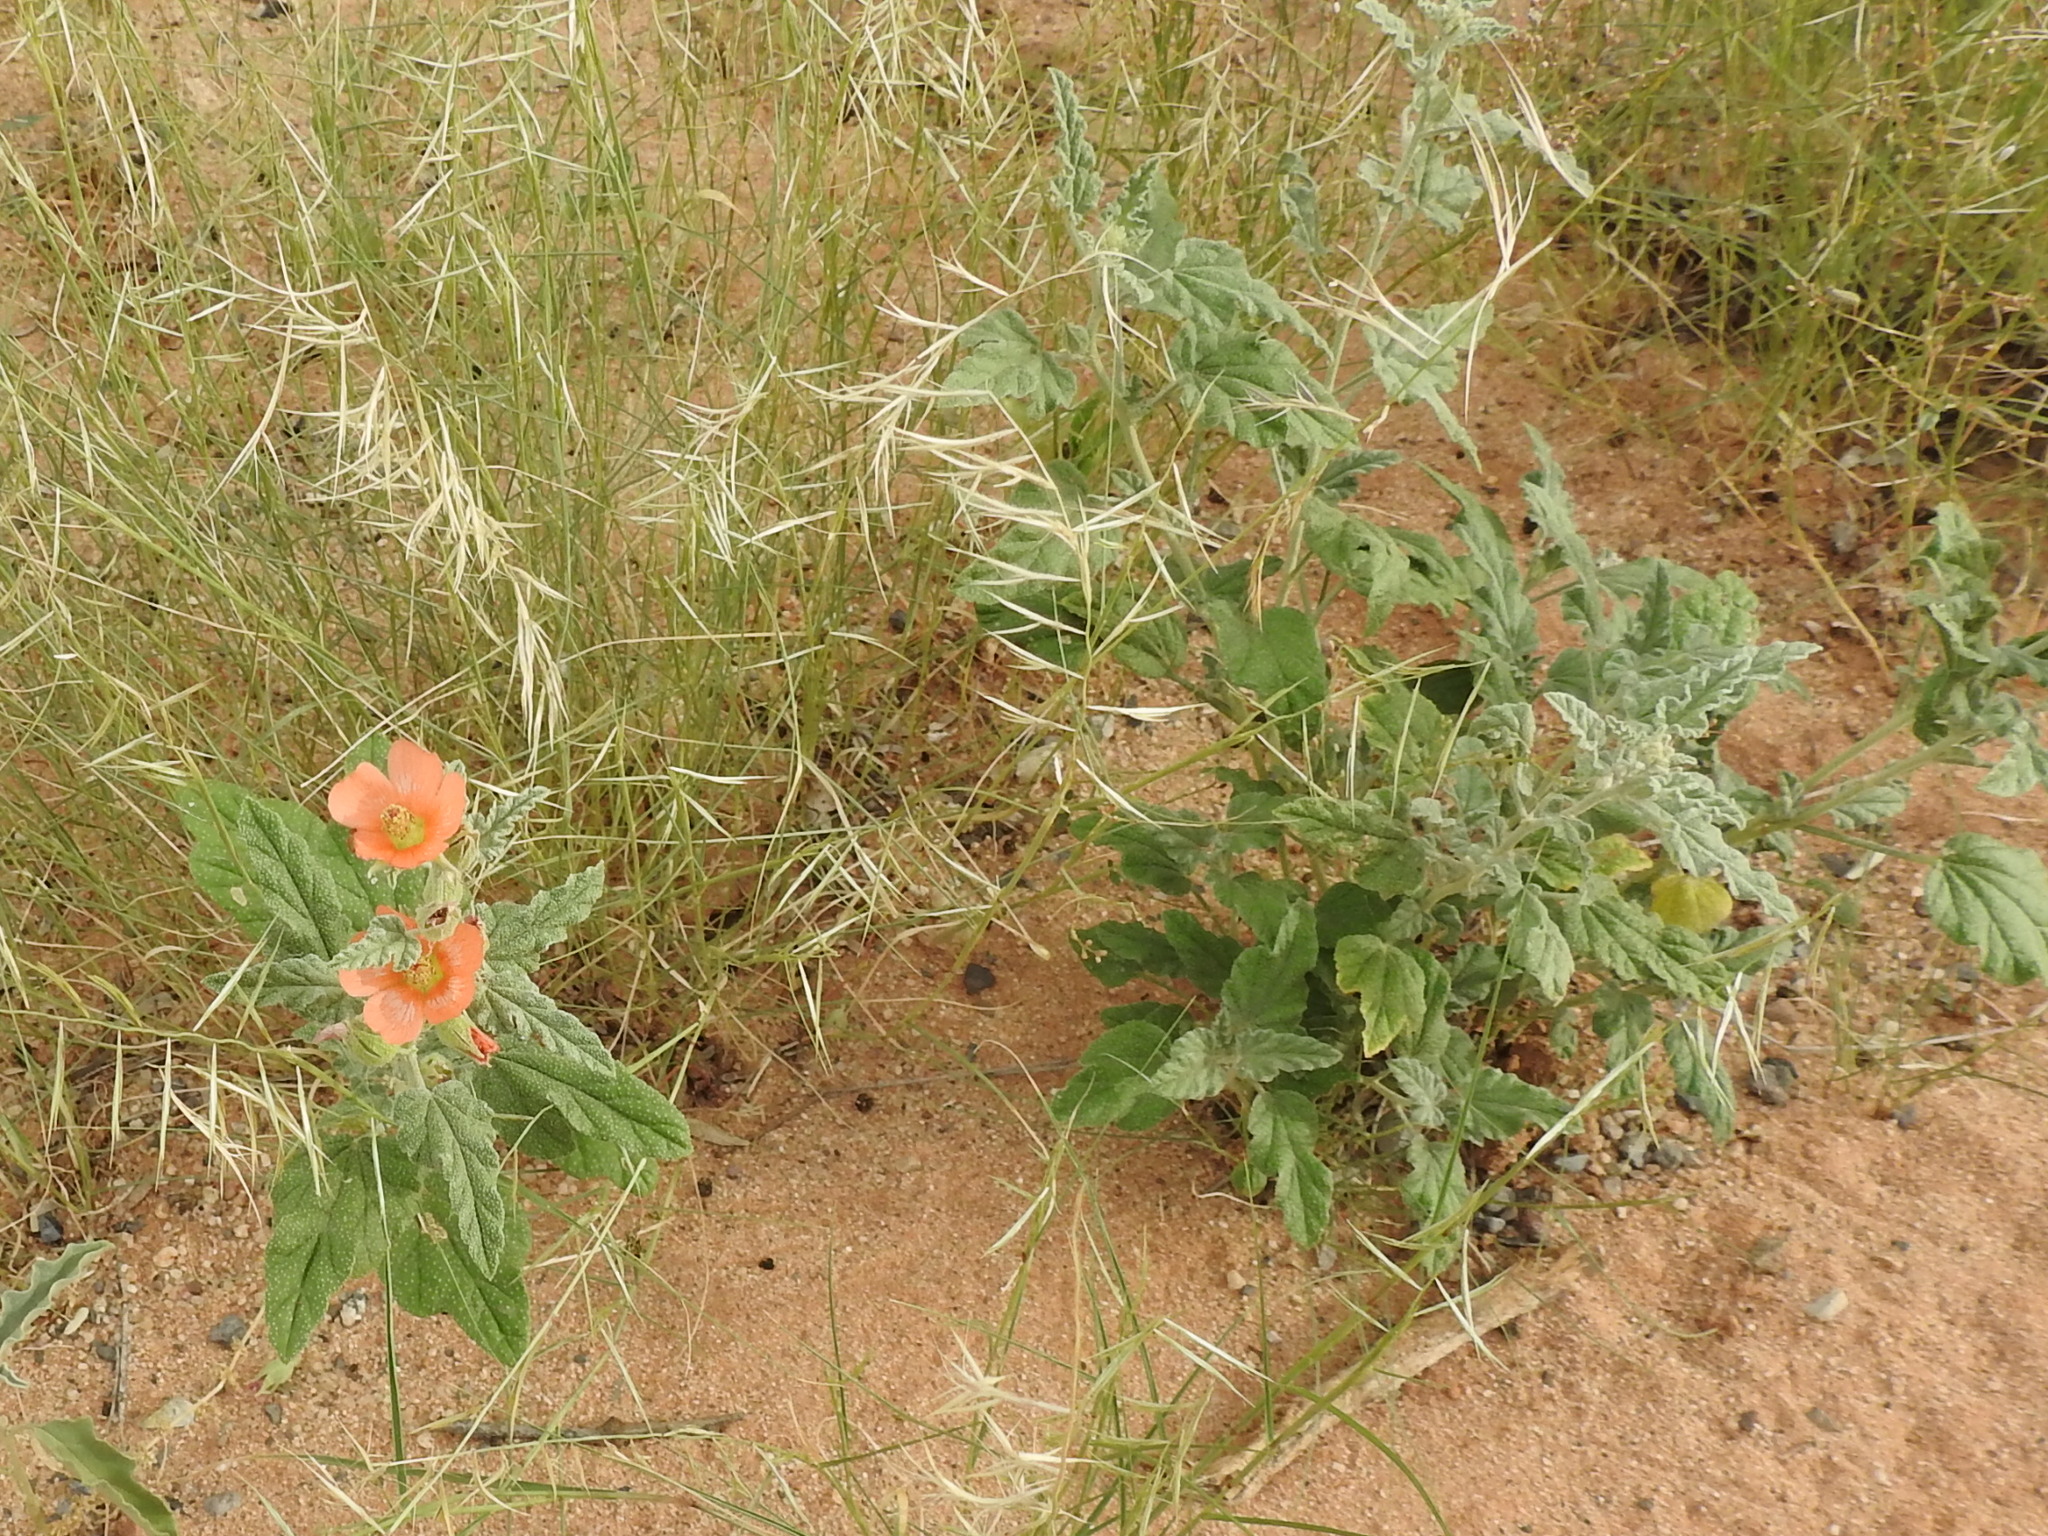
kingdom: Plantae
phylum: Tracheophyta
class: Magnoliopsida
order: Malvales
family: Malvaceae
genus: Sphaeralcea
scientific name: Sphaeralcea ambigua
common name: Apricot globe-mallow
